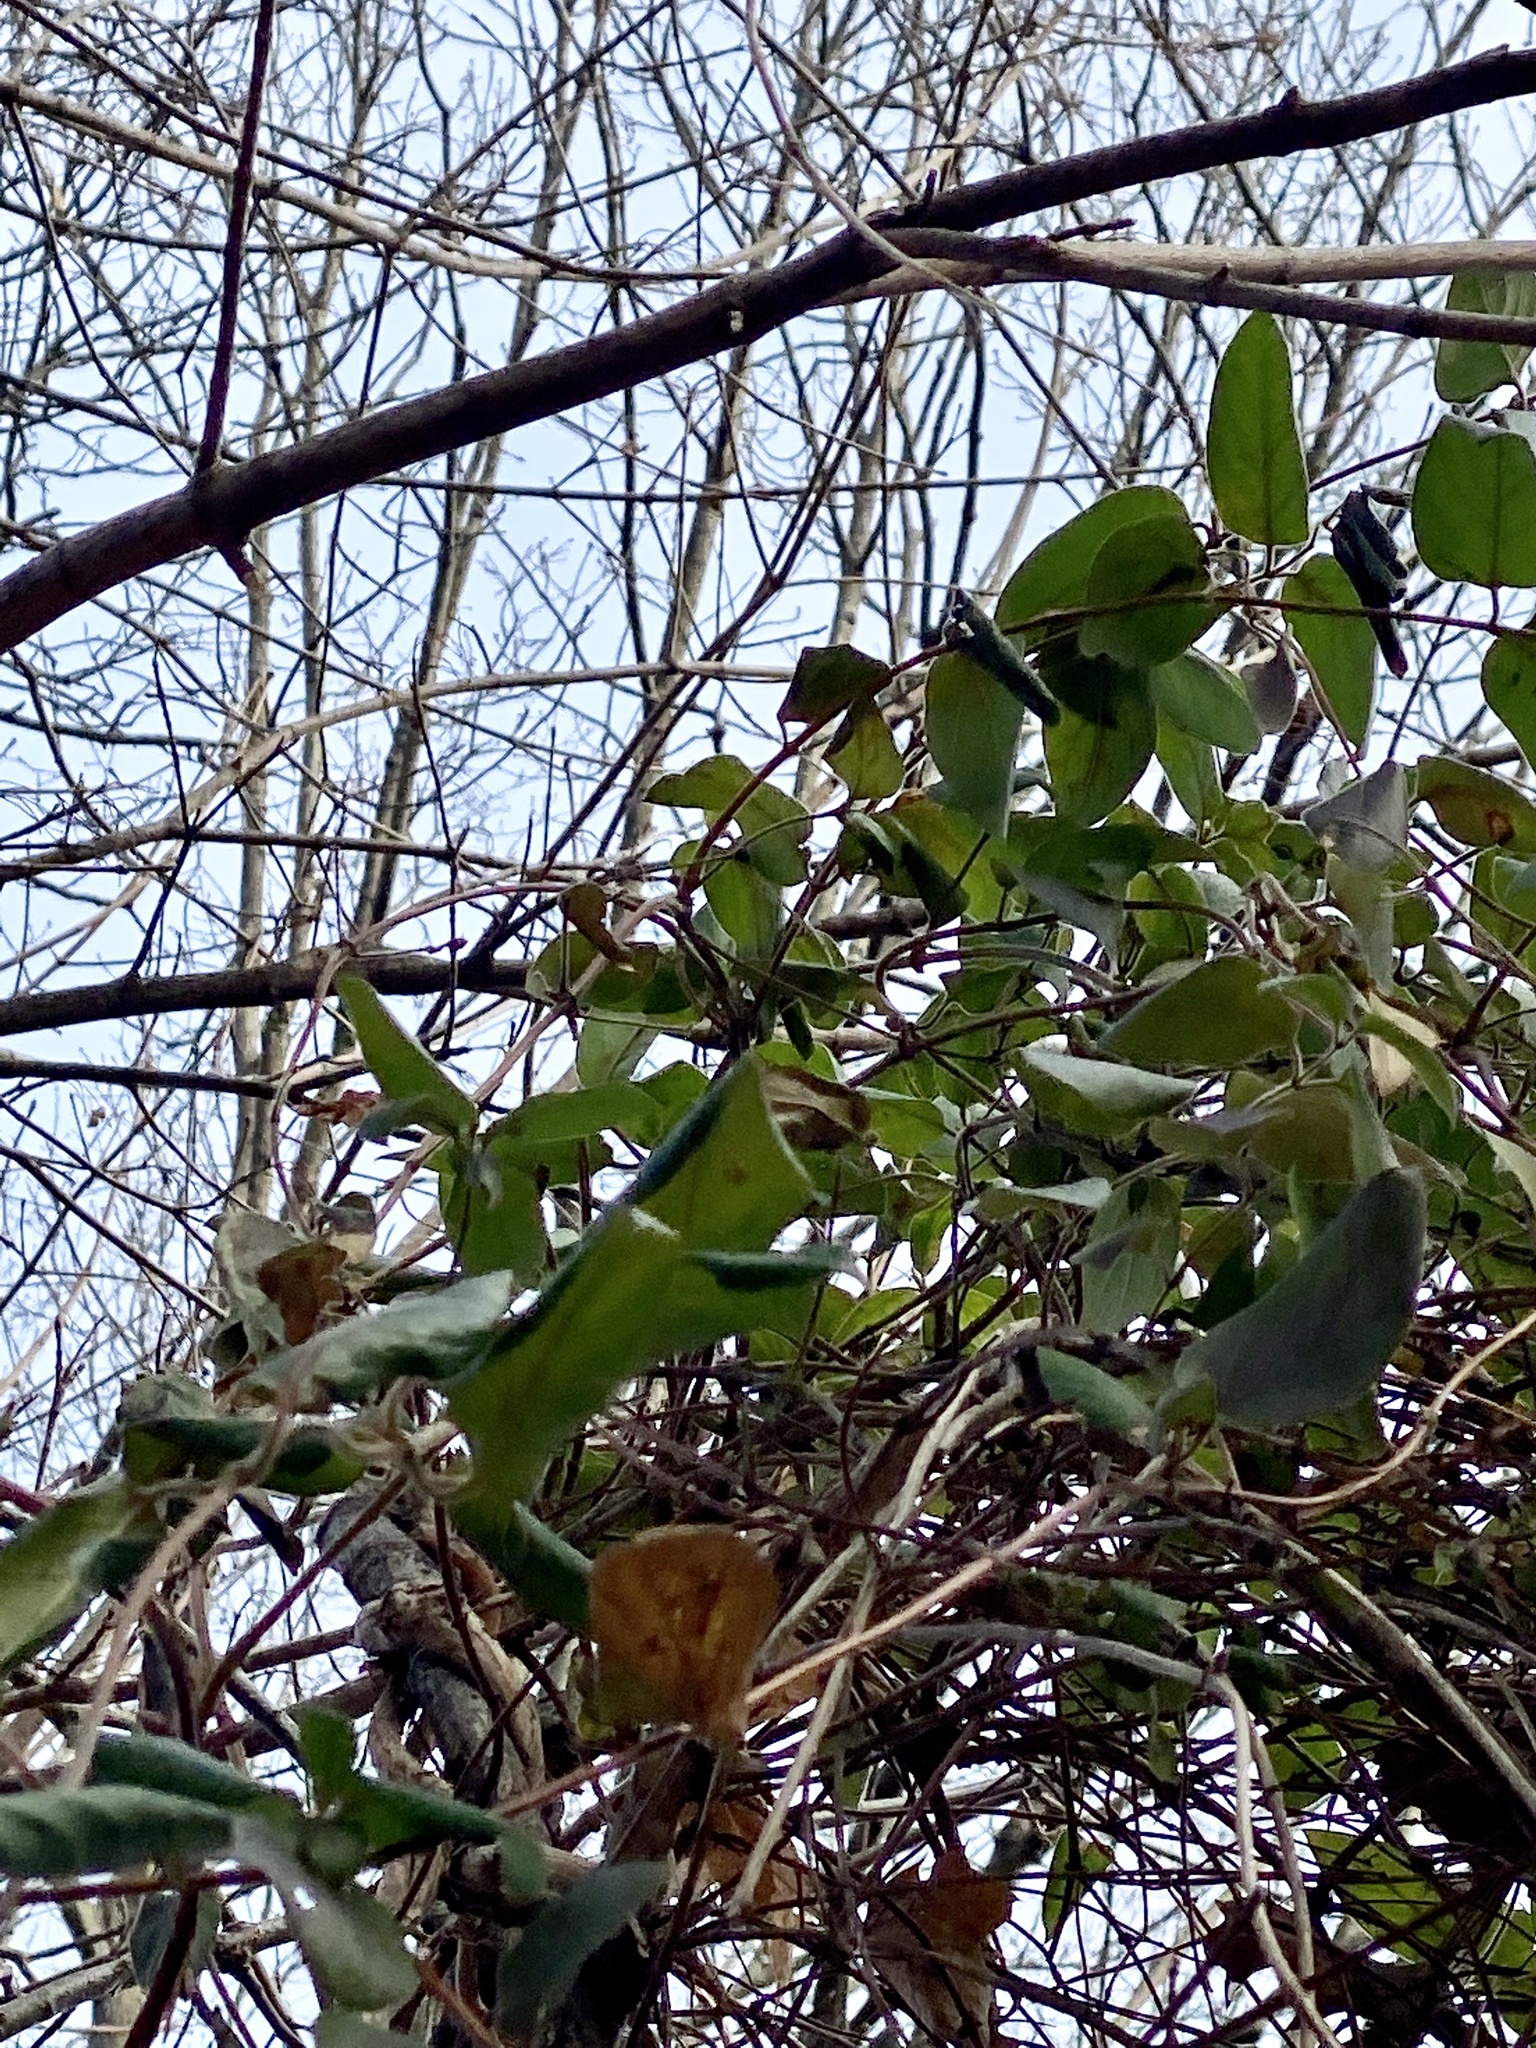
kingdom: Plantae
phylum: Tracheophyta
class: Magnoliopsida
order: Dipsacales
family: Caprifoliaceae
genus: Lonicera
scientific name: Lonicera japonica
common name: Japanese honeysuckle
